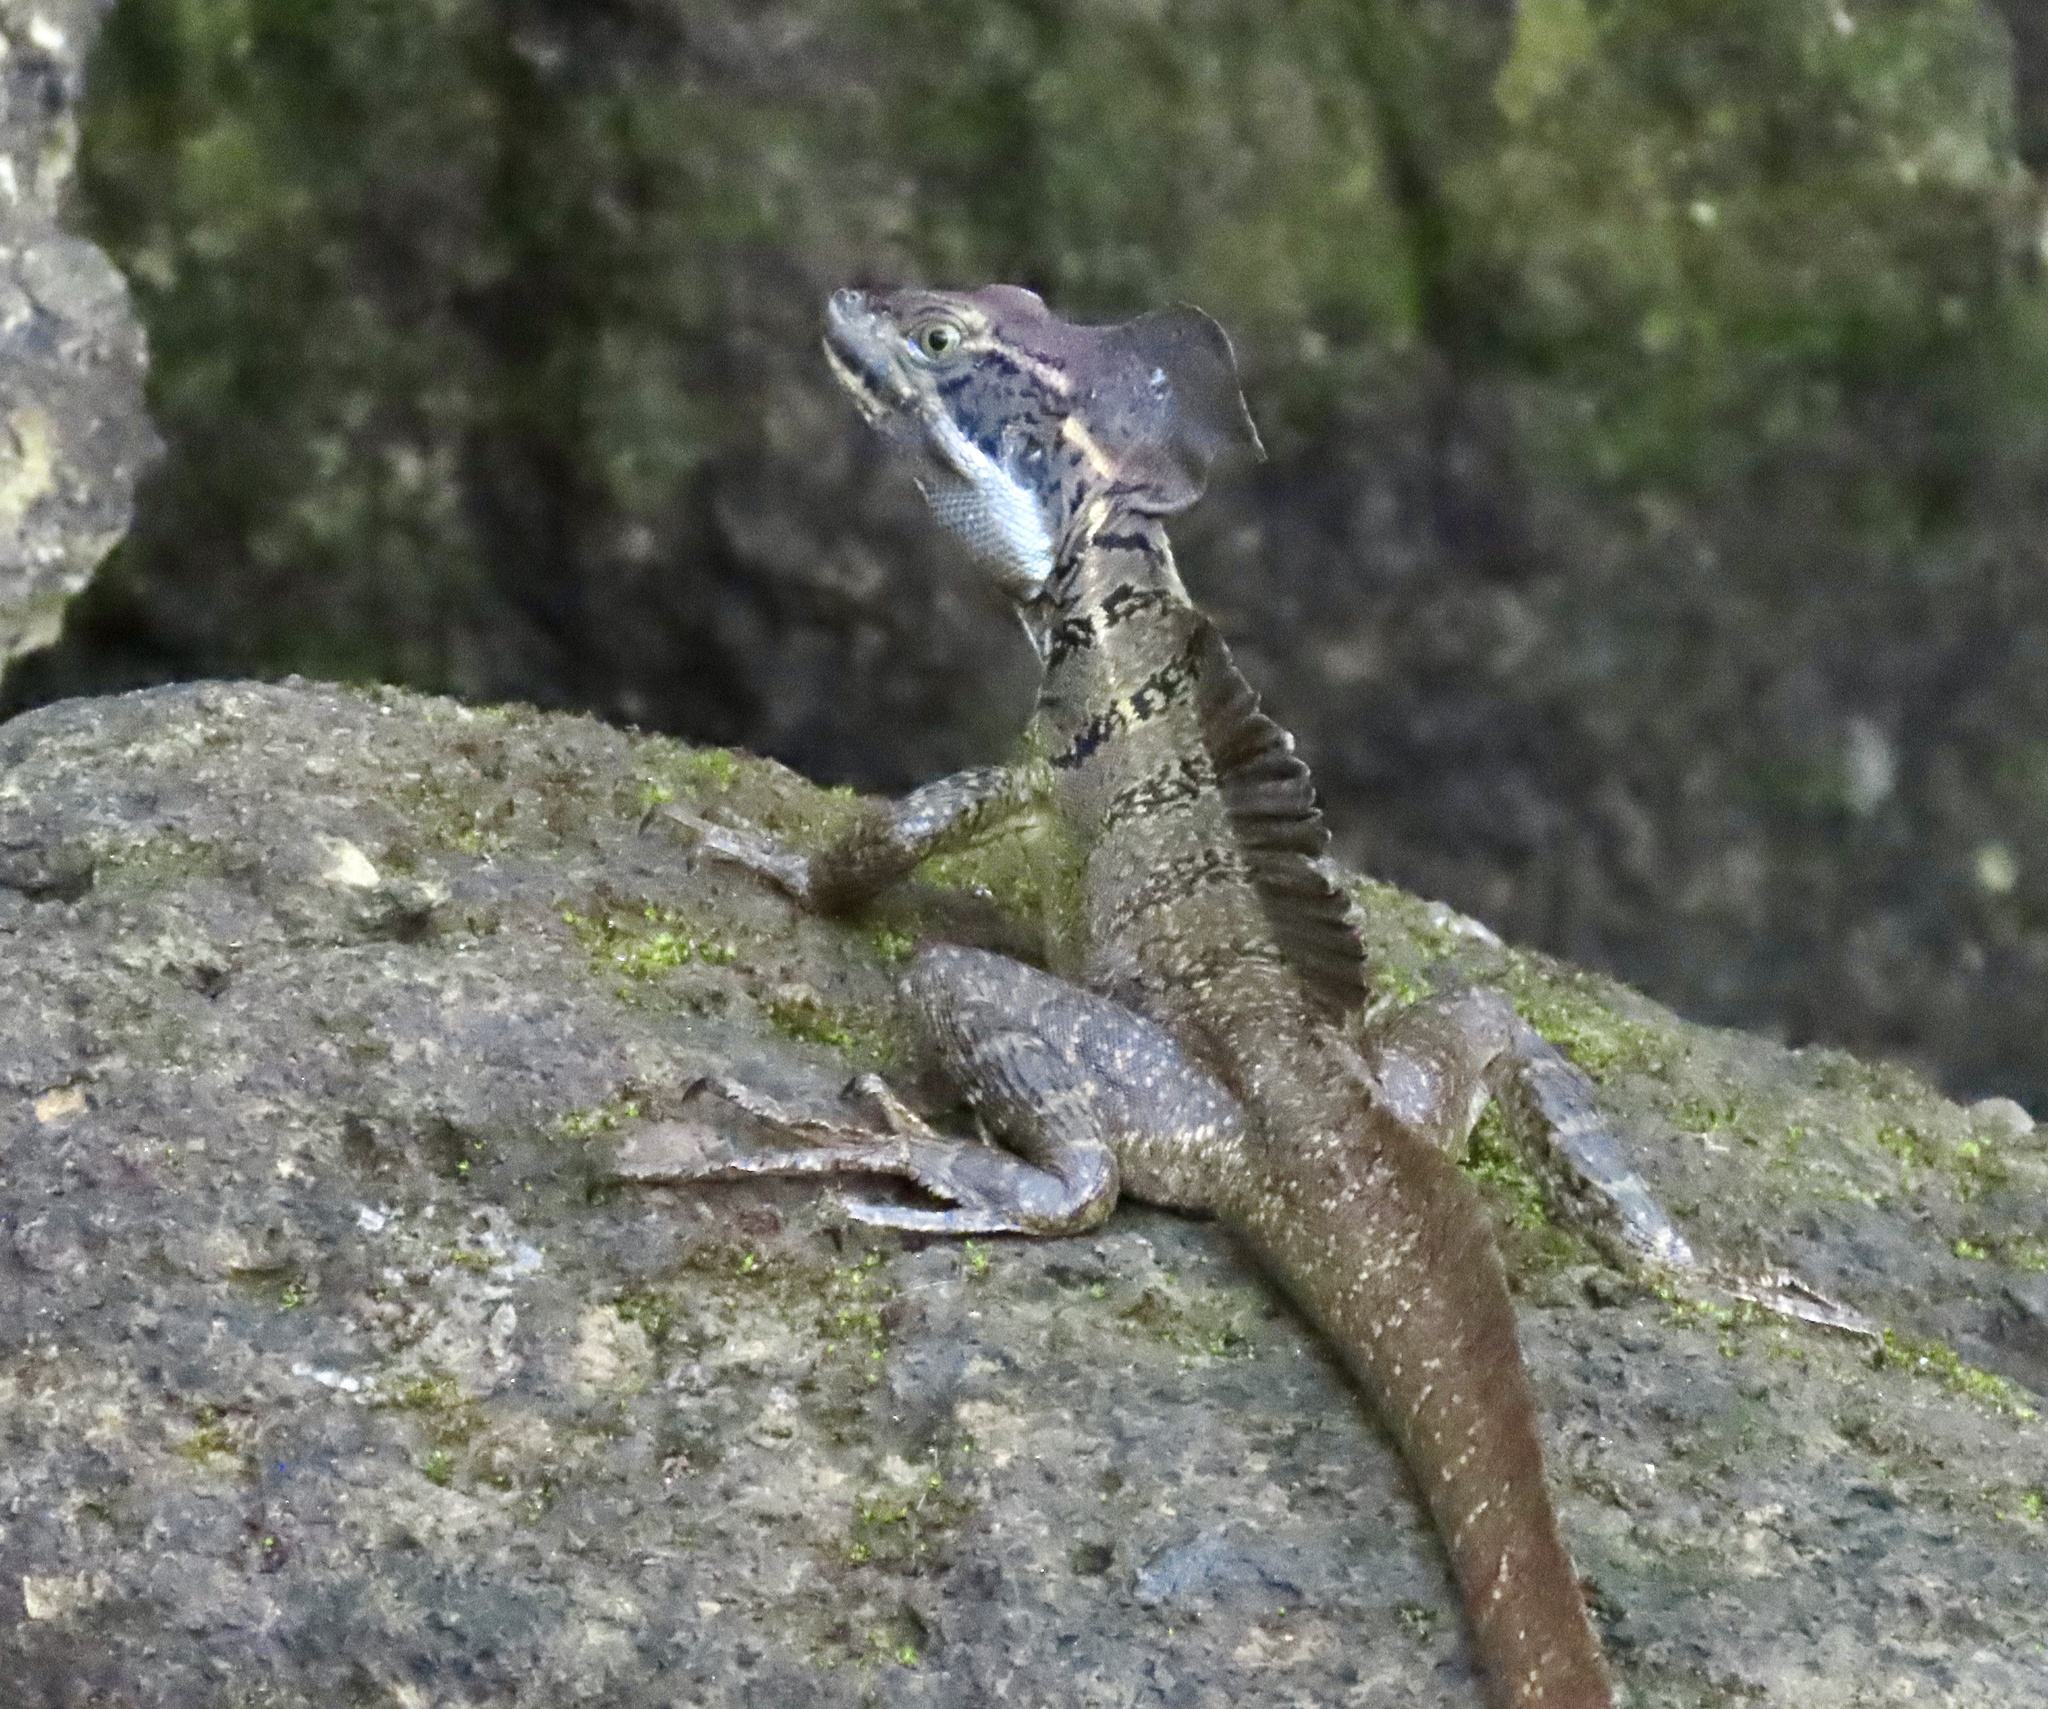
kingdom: Animalia
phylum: Chordata
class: Squamata
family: Corytophanidae
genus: Basiliscus
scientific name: Basiliscus basiliscus
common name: Common basilisk
